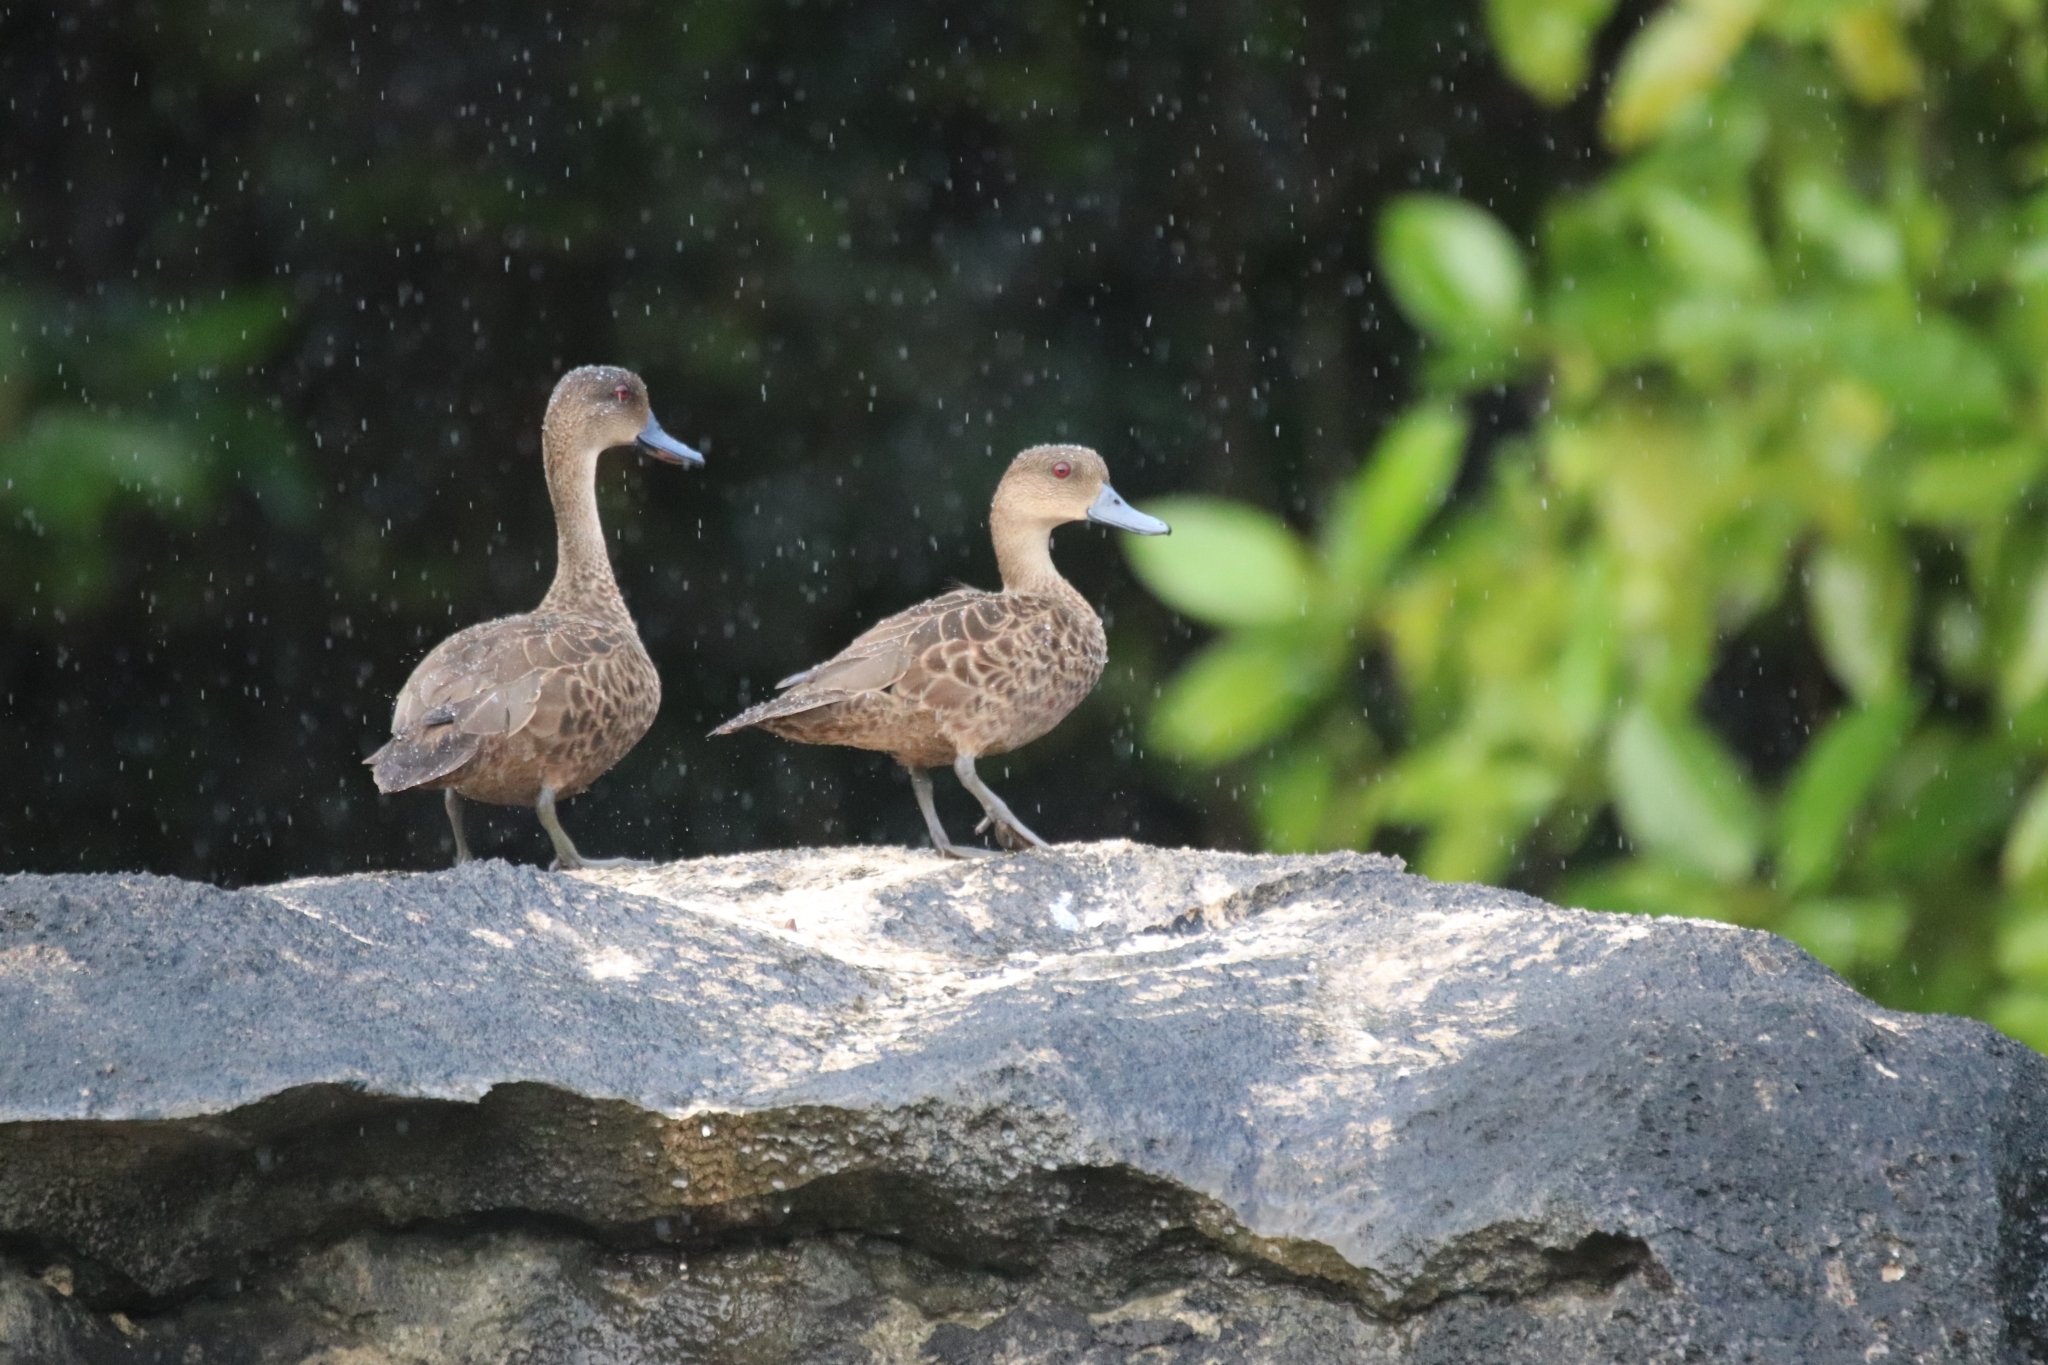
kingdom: Animalia
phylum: Chordata
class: Aves
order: Anseriformes
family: Anatidae
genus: Anas
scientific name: Anas gibberifrons
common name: Sunda teal
